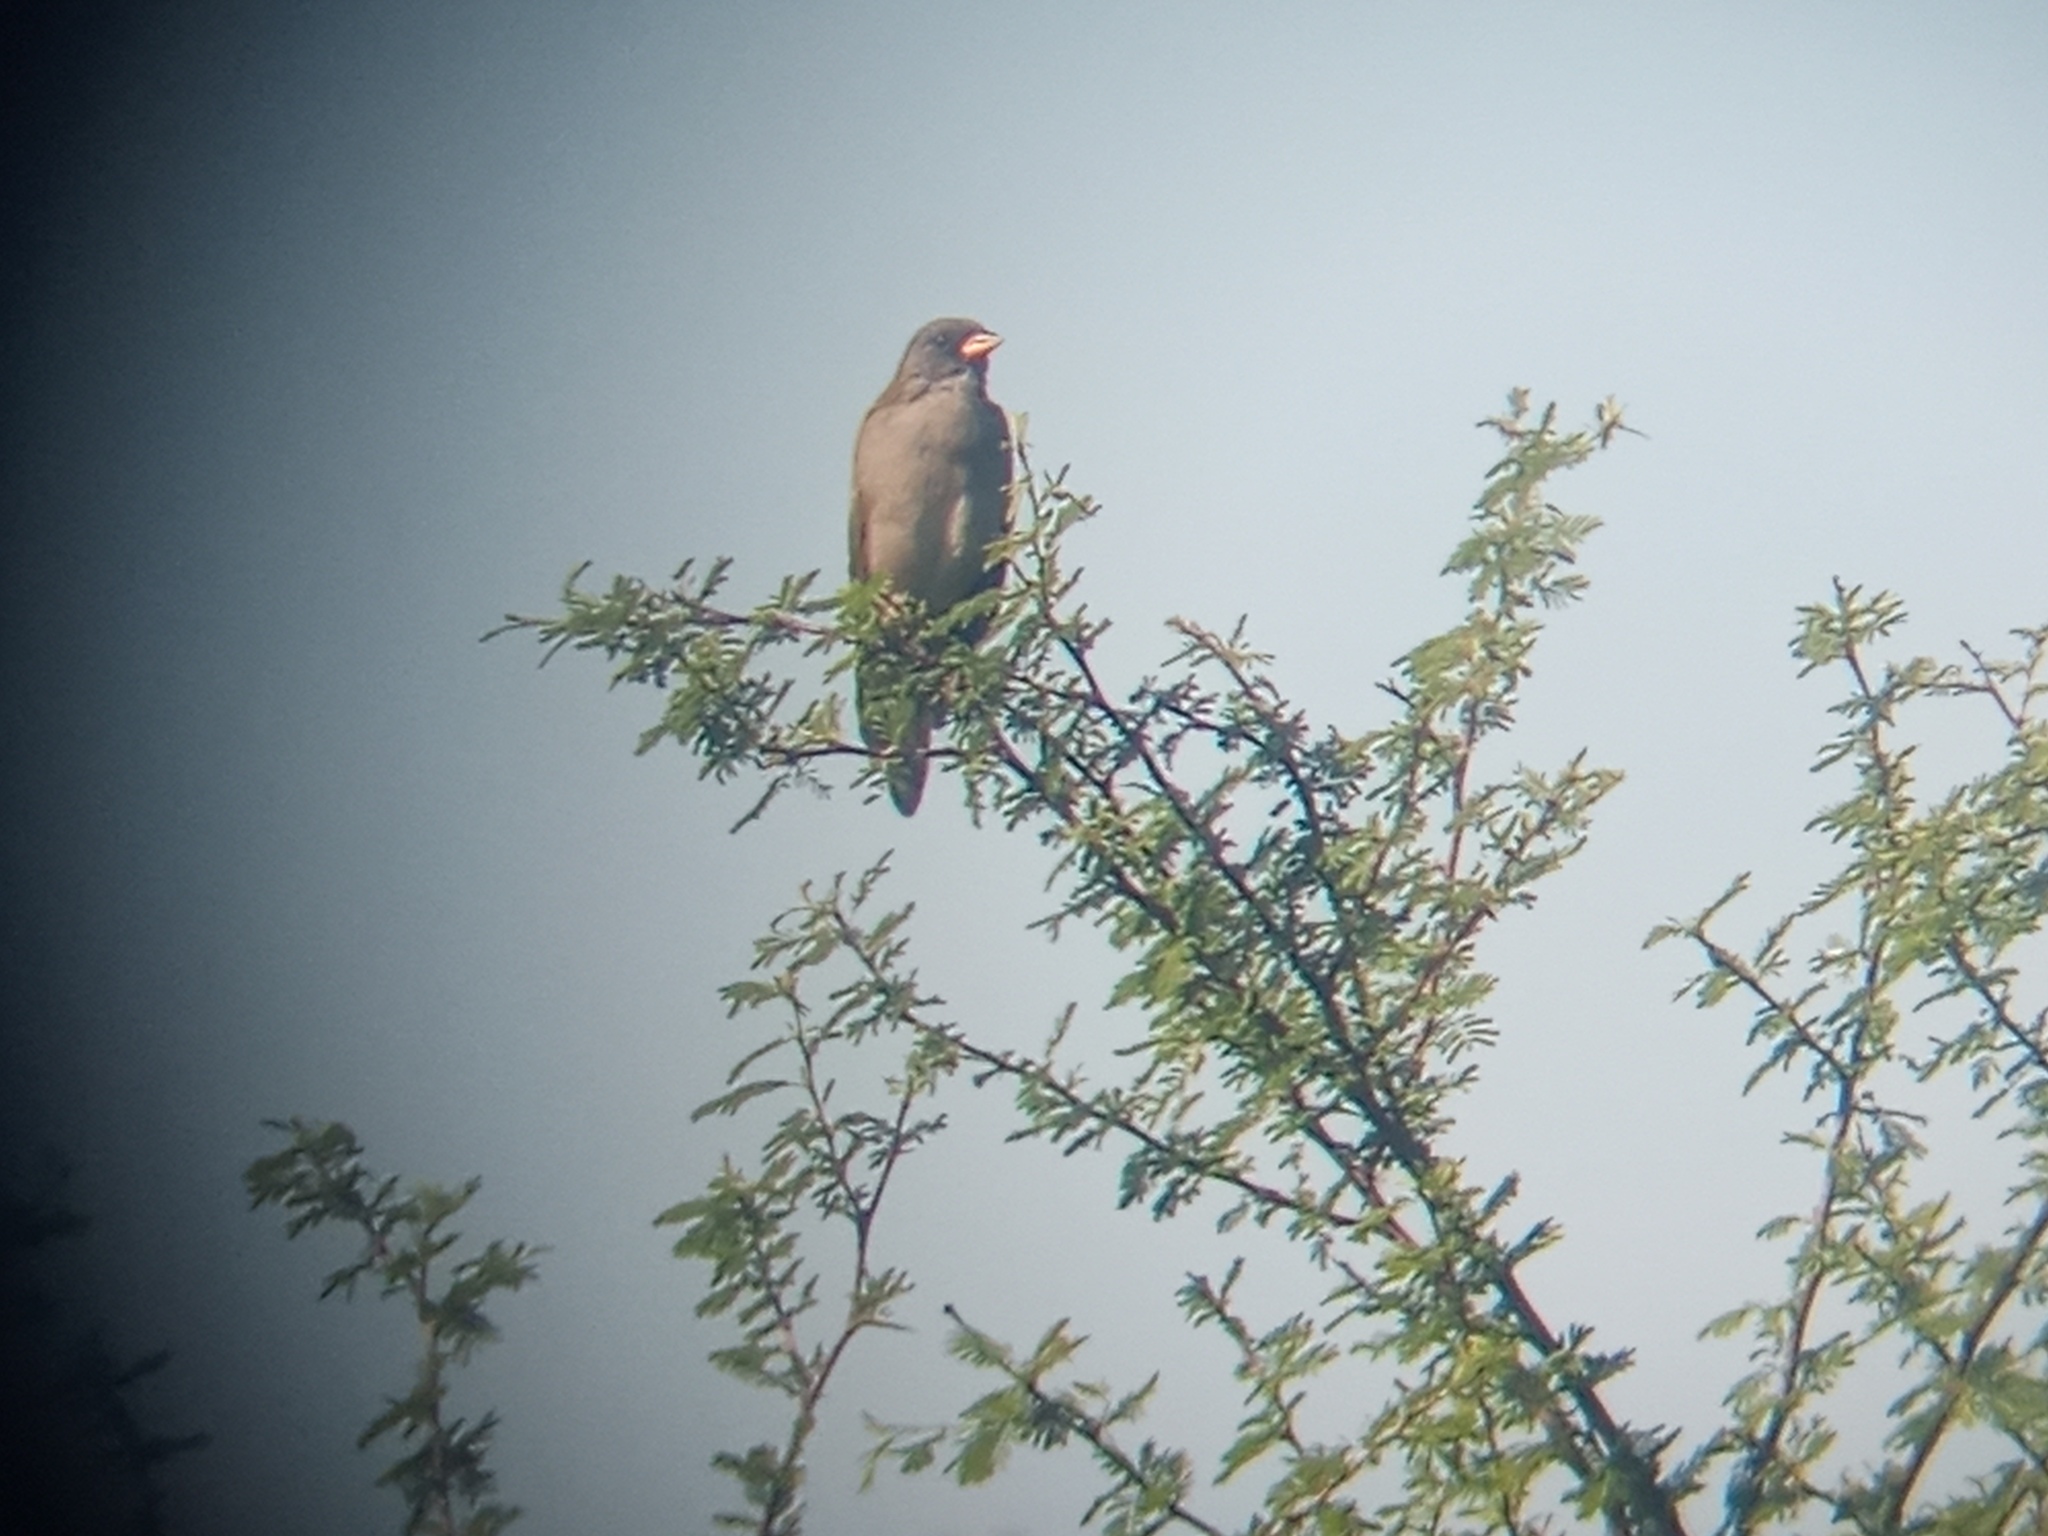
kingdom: Animalia
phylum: Chordata
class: Aves
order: Passeriformes
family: Thraupidae
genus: Embernagra
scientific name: Embernagra platensis
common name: Pampa finch
